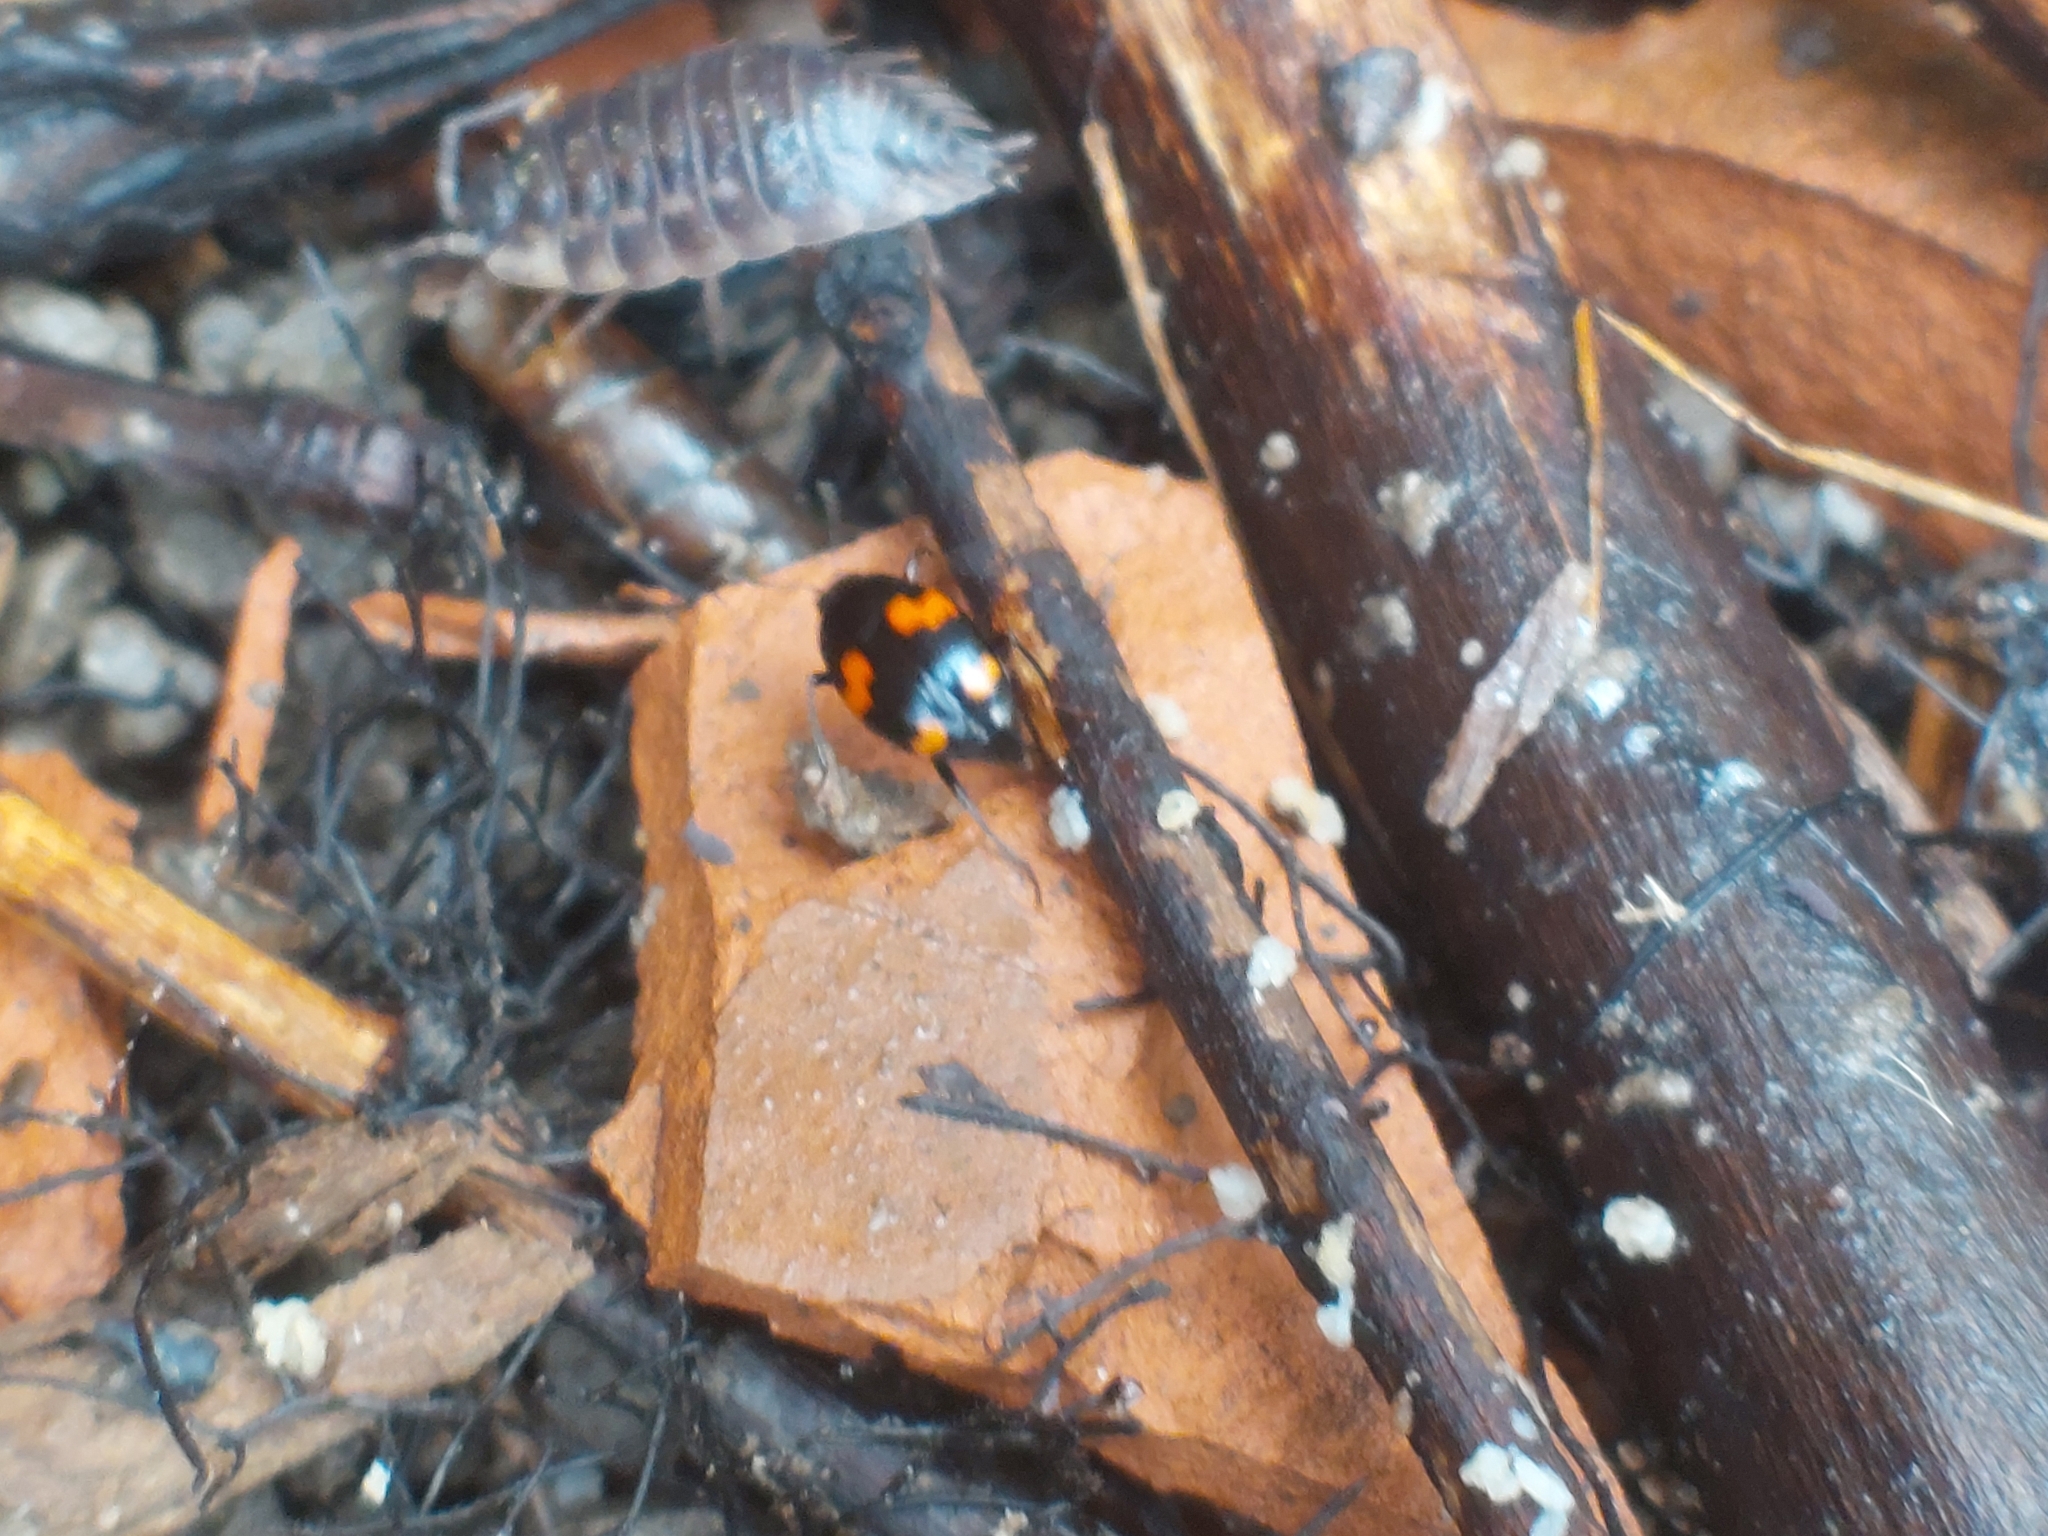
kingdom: Animalia
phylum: Arthropoda
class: Insecta
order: Coleoptera
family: Staphylinidae
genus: Scaphidium
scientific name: Scaphidium quadrimaculatum
